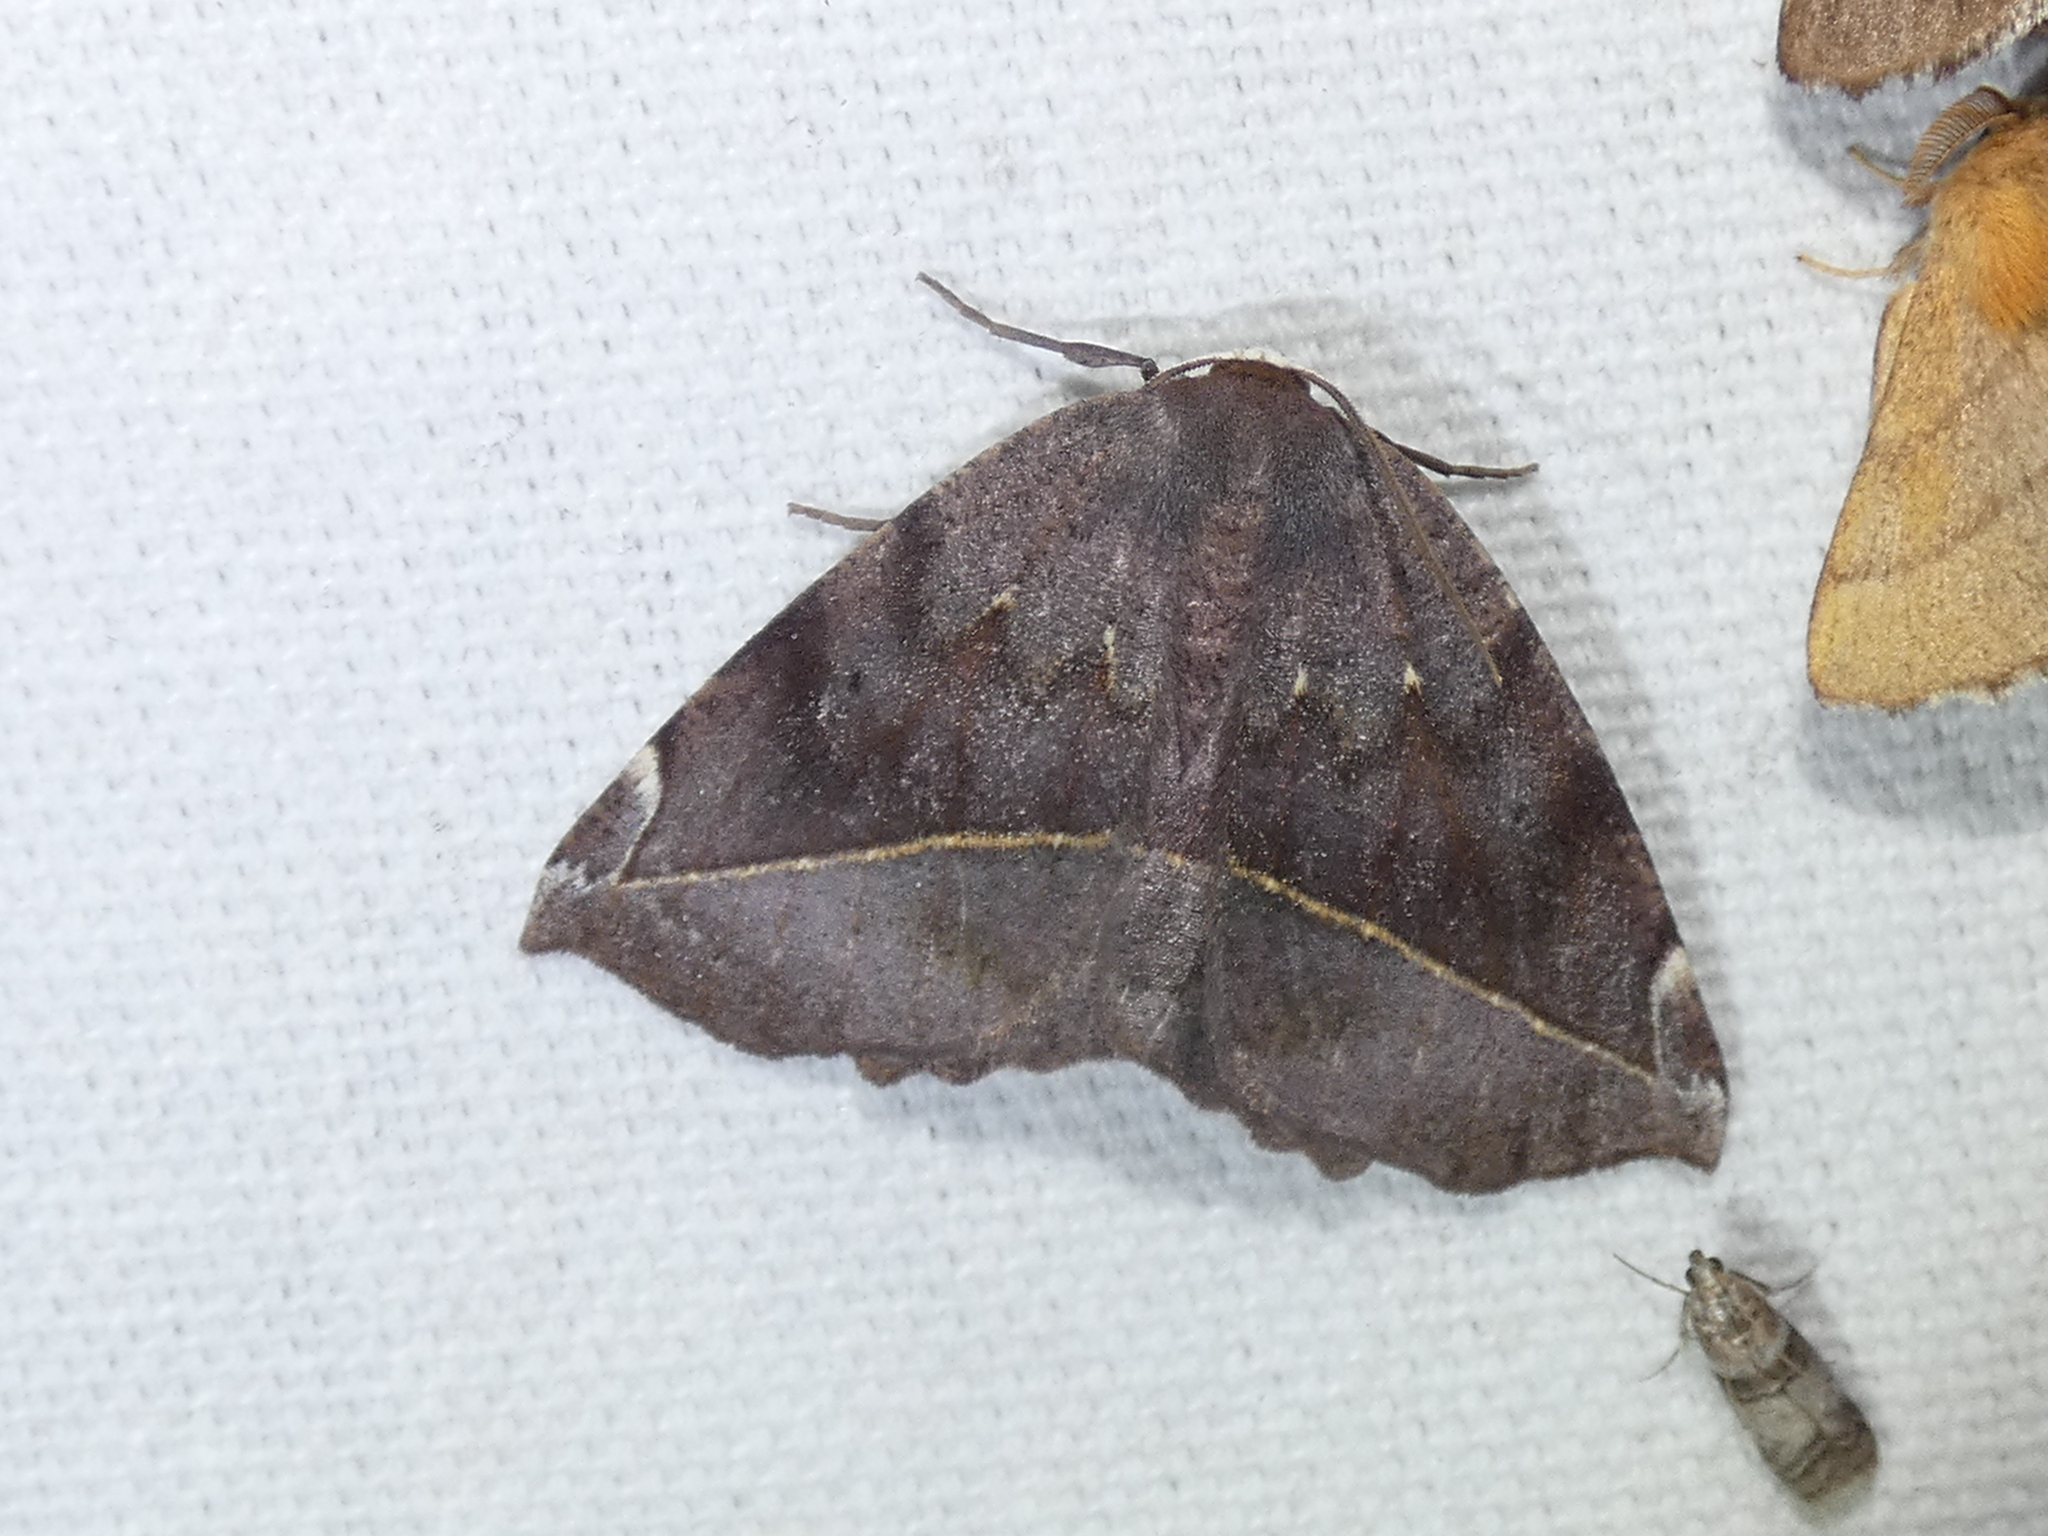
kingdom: Animalia
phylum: Arthropoda
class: Insecta
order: Lepidoptera
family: Geometridae
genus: Eutrapela
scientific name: Eutrapela clemataria
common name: Curved-toothed geometer
